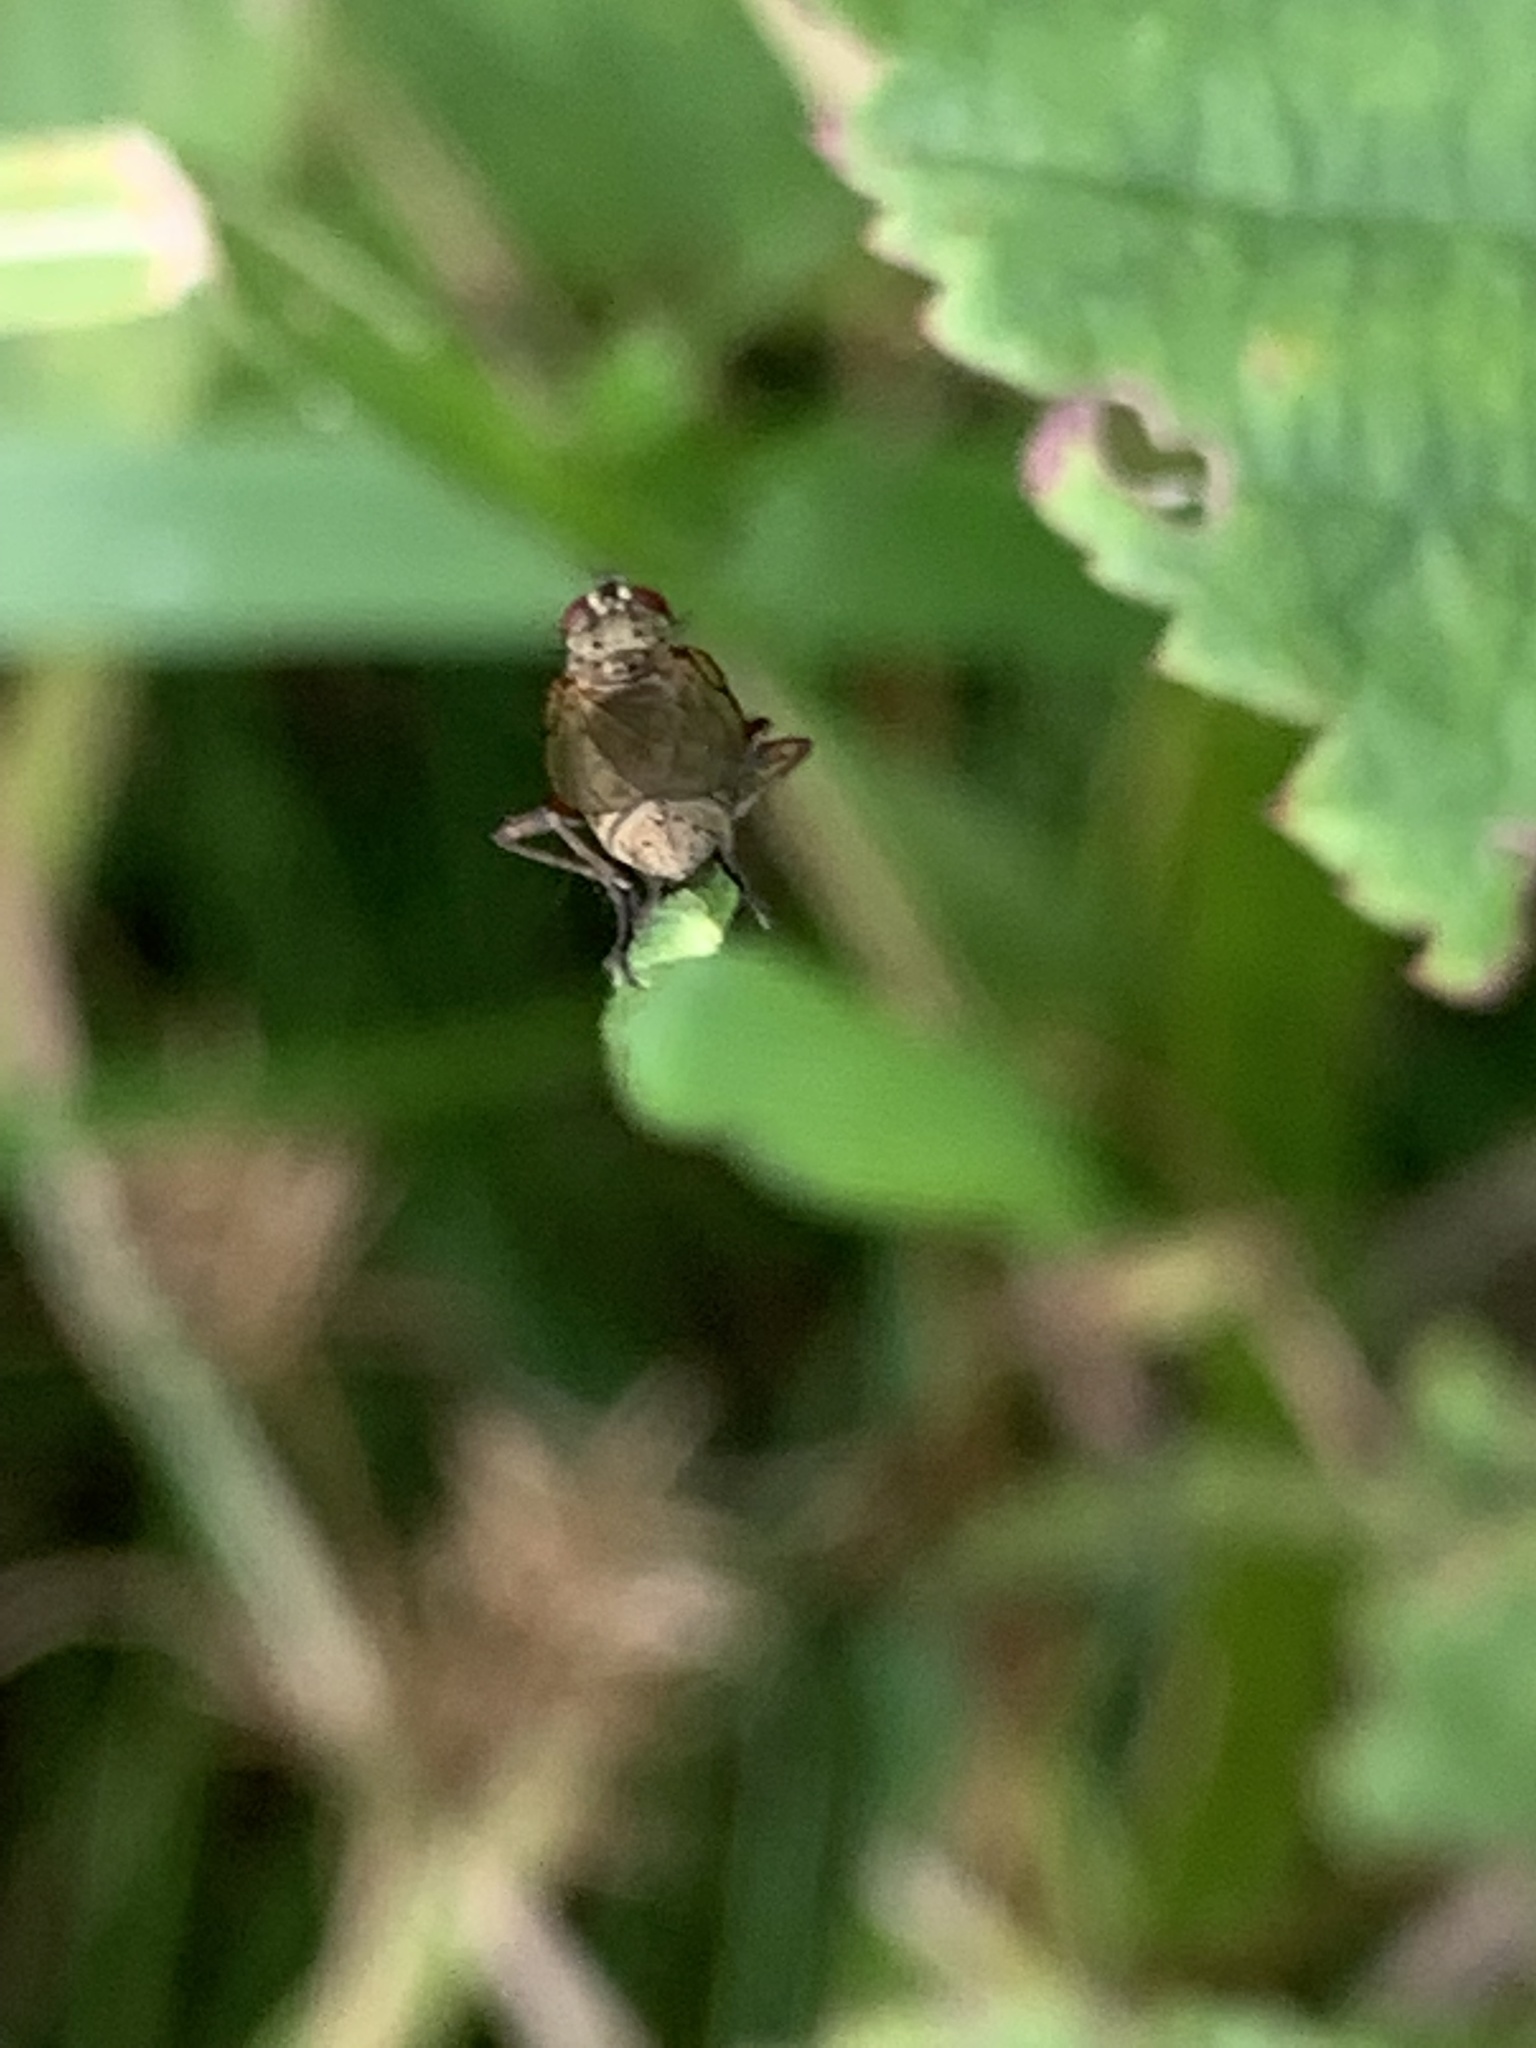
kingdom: Animalia
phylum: Arthropoda
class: Insecta
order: Diptera
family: Muscidae
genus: Coenosia
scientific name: Coenosia tigrina
